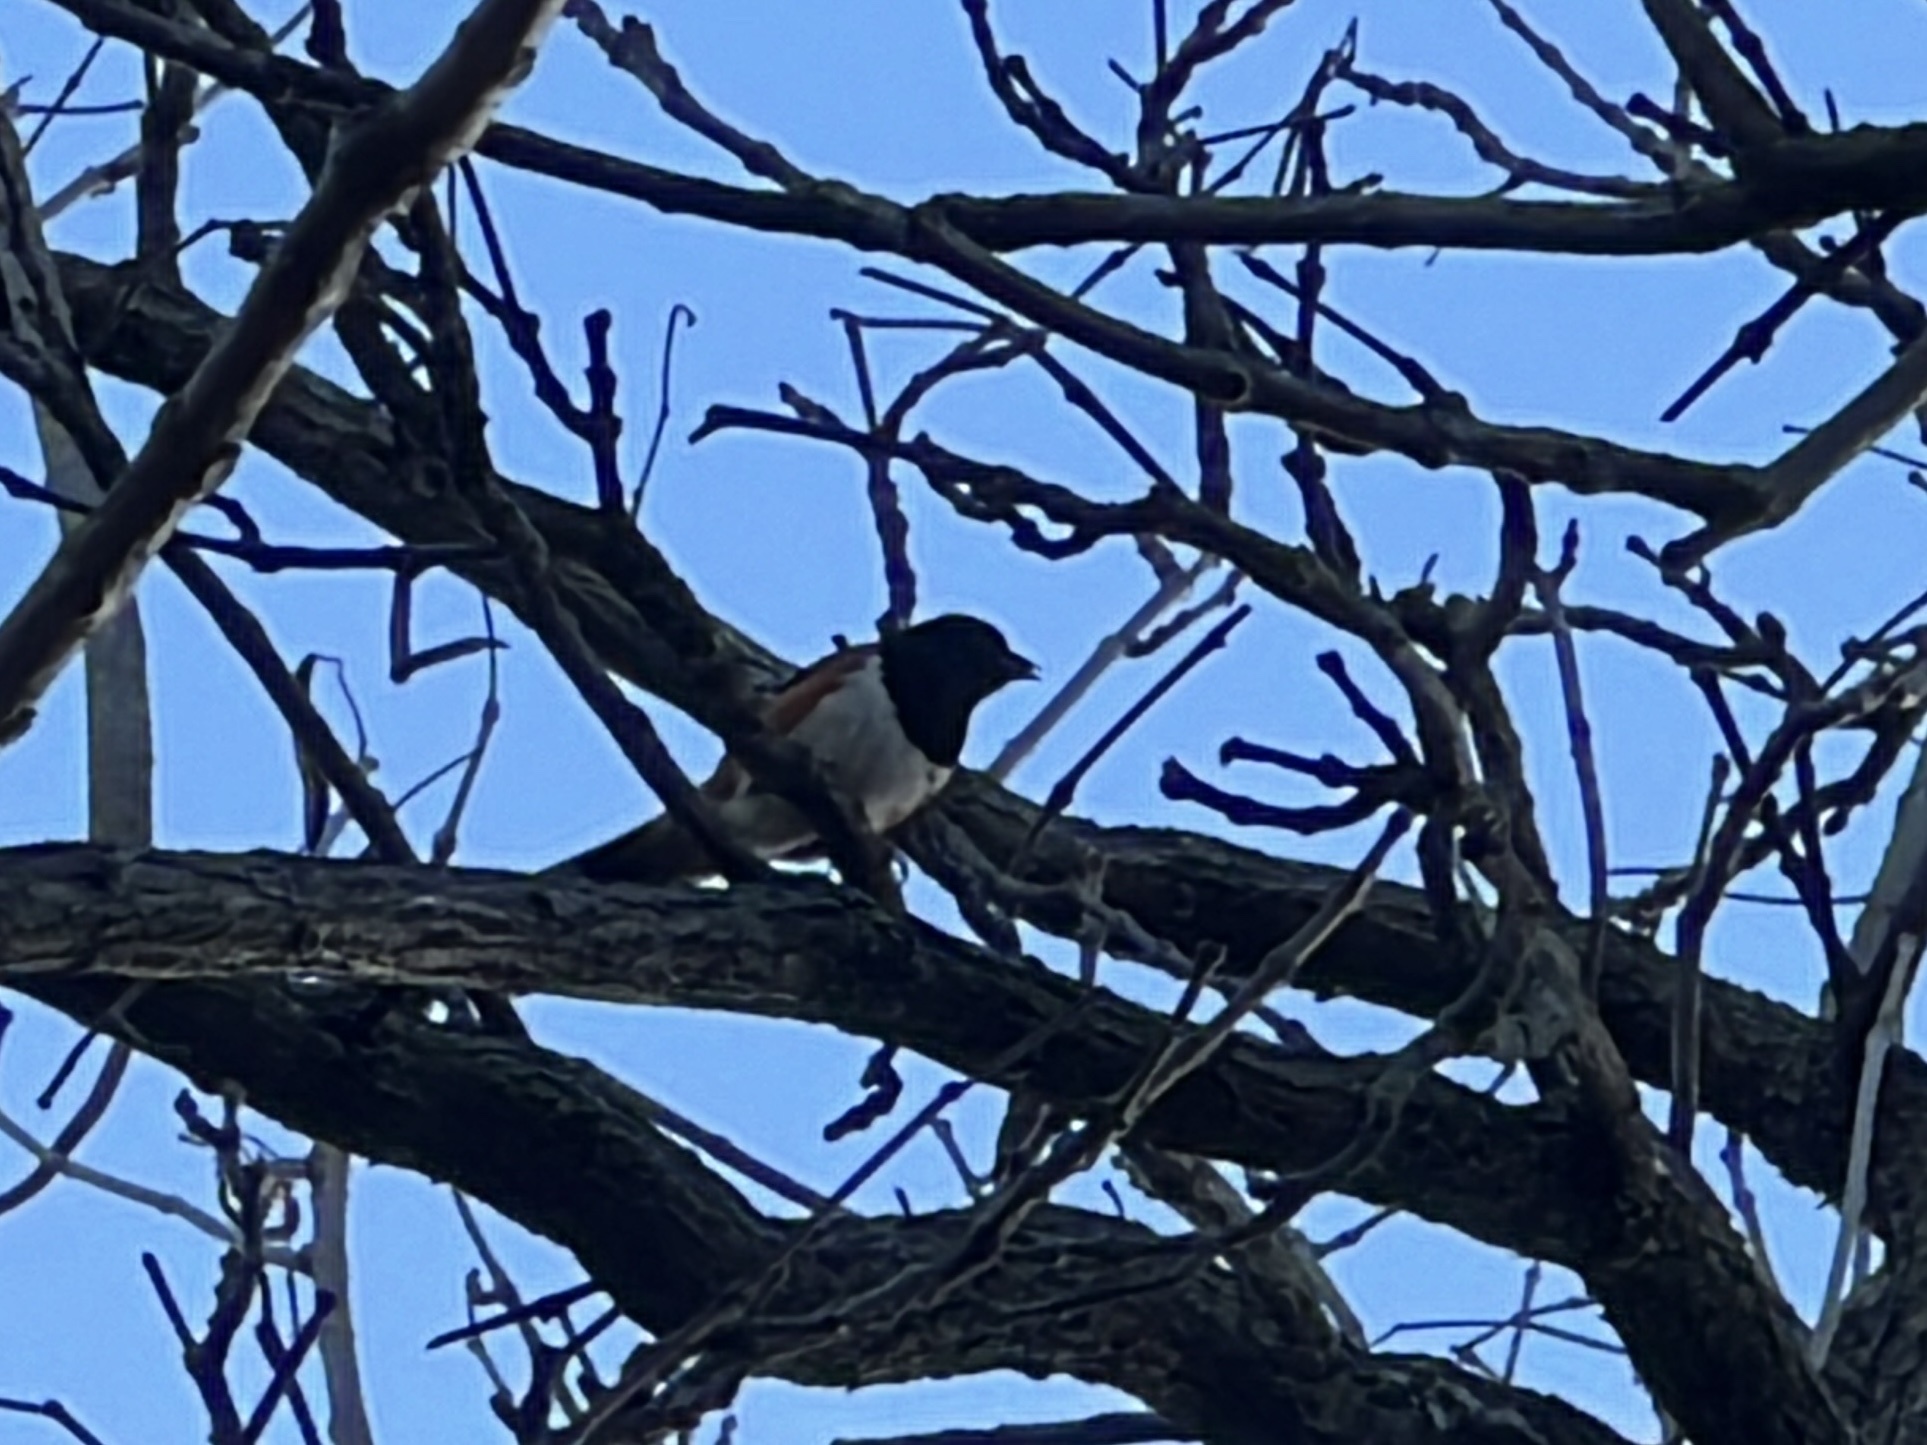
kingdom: Animalia
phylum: Chordata
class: Aves
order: Passeriformes
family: Passerellidae
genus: Pipilo
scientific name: Pipilo erythrophthalmus
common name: Eastern towhee
